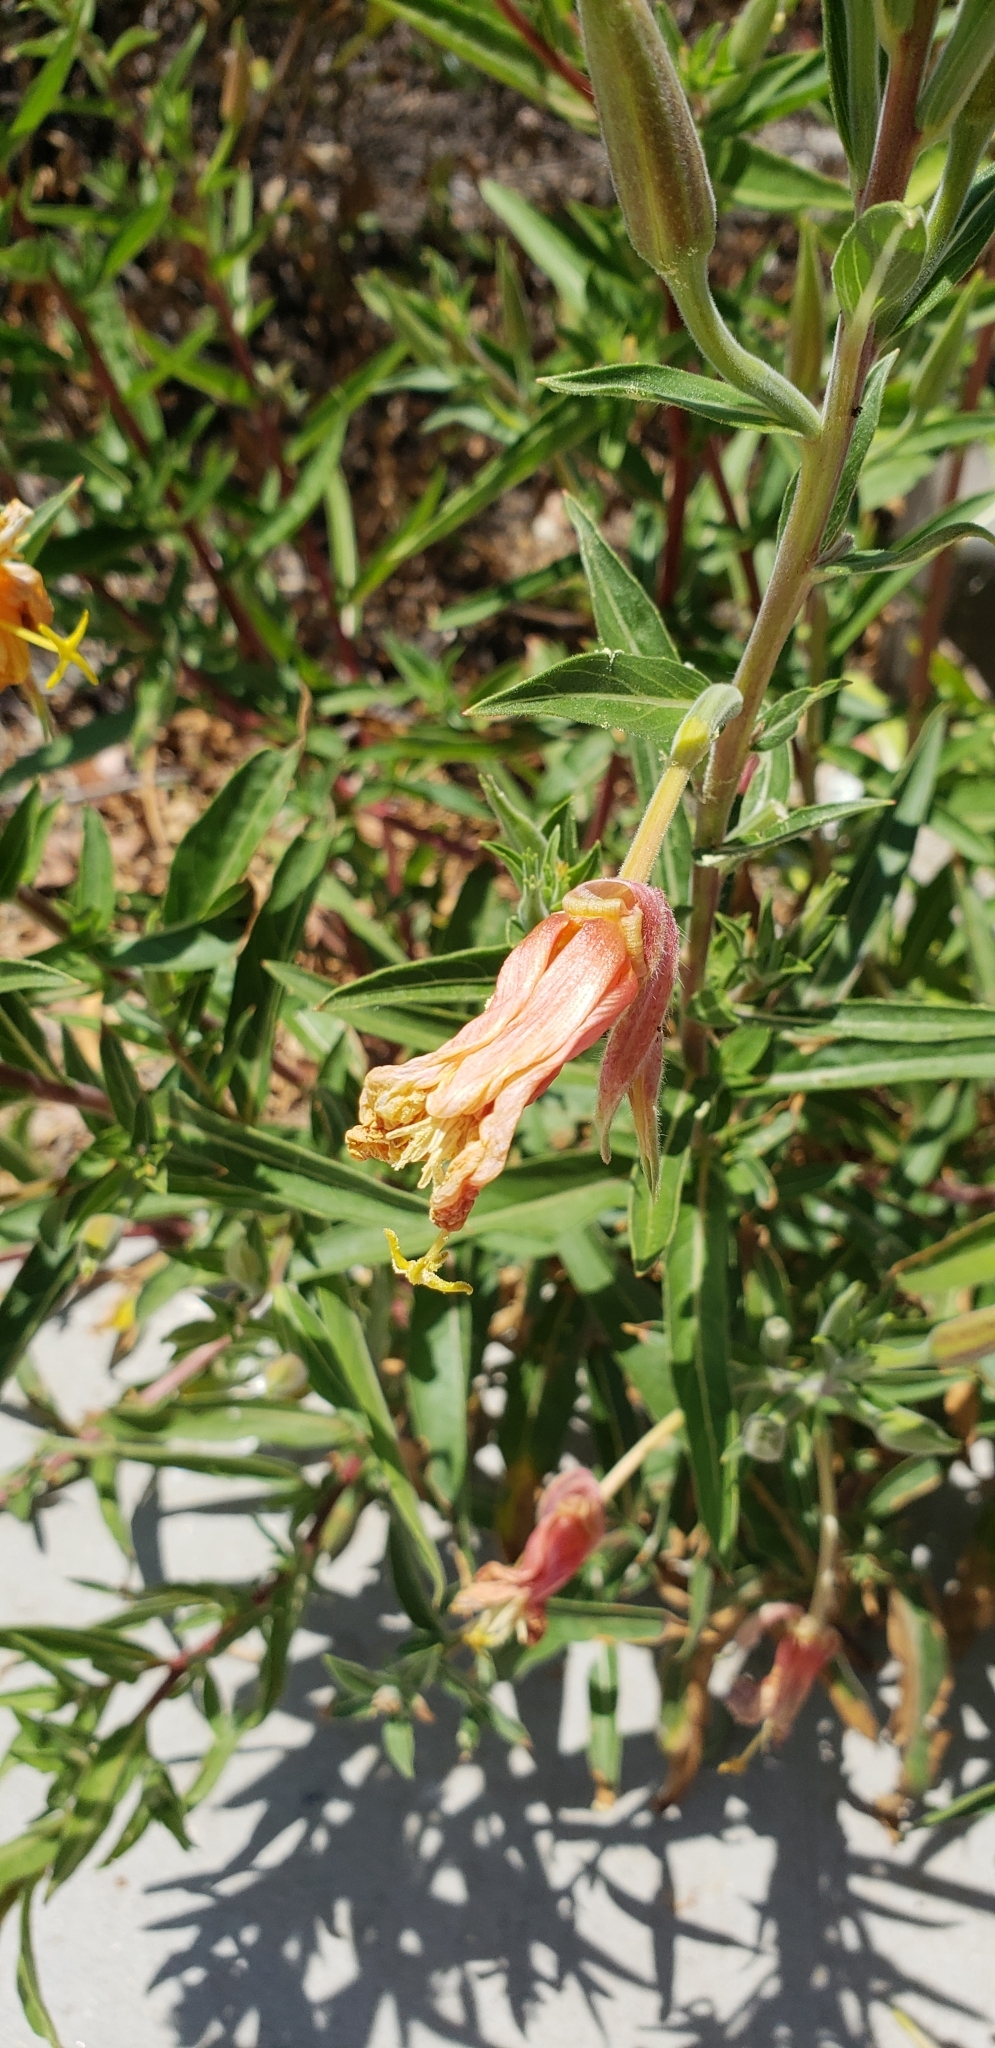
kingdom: Plantae
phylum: Tracheophyta
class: Magnoliopsida
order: Myrtales
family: Onagraceae
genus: Oenothera
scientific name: Oenothera elata
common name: Hooker's evening-primrose
